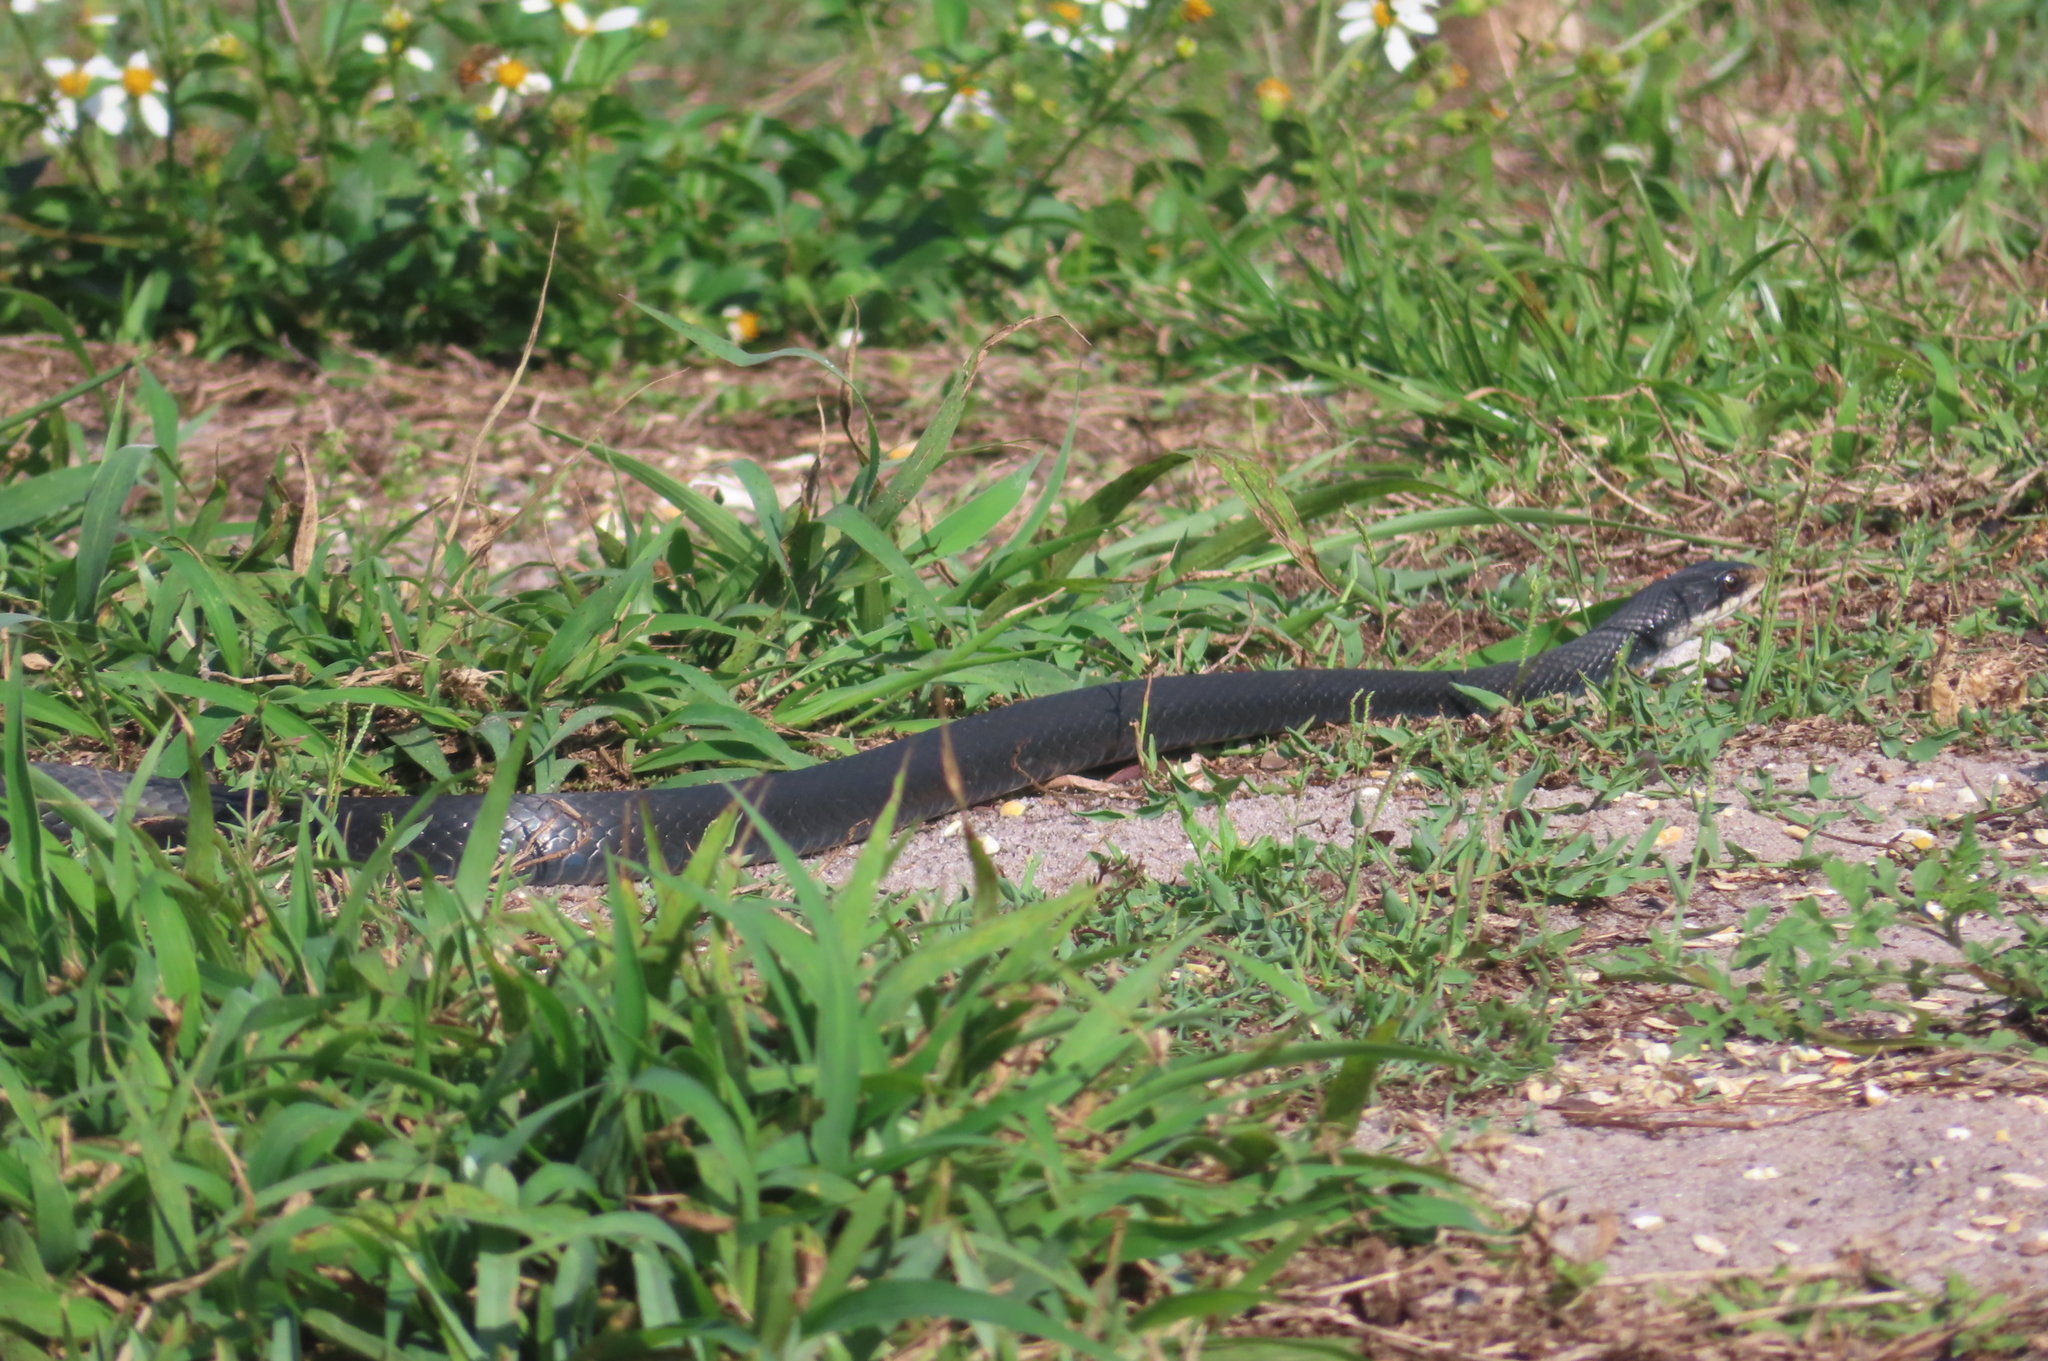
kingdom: Animalia
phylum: Chordata
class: Squamata
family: Colubridae
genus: Coluber
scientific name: Coluber constrictor
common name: Eastern racer
